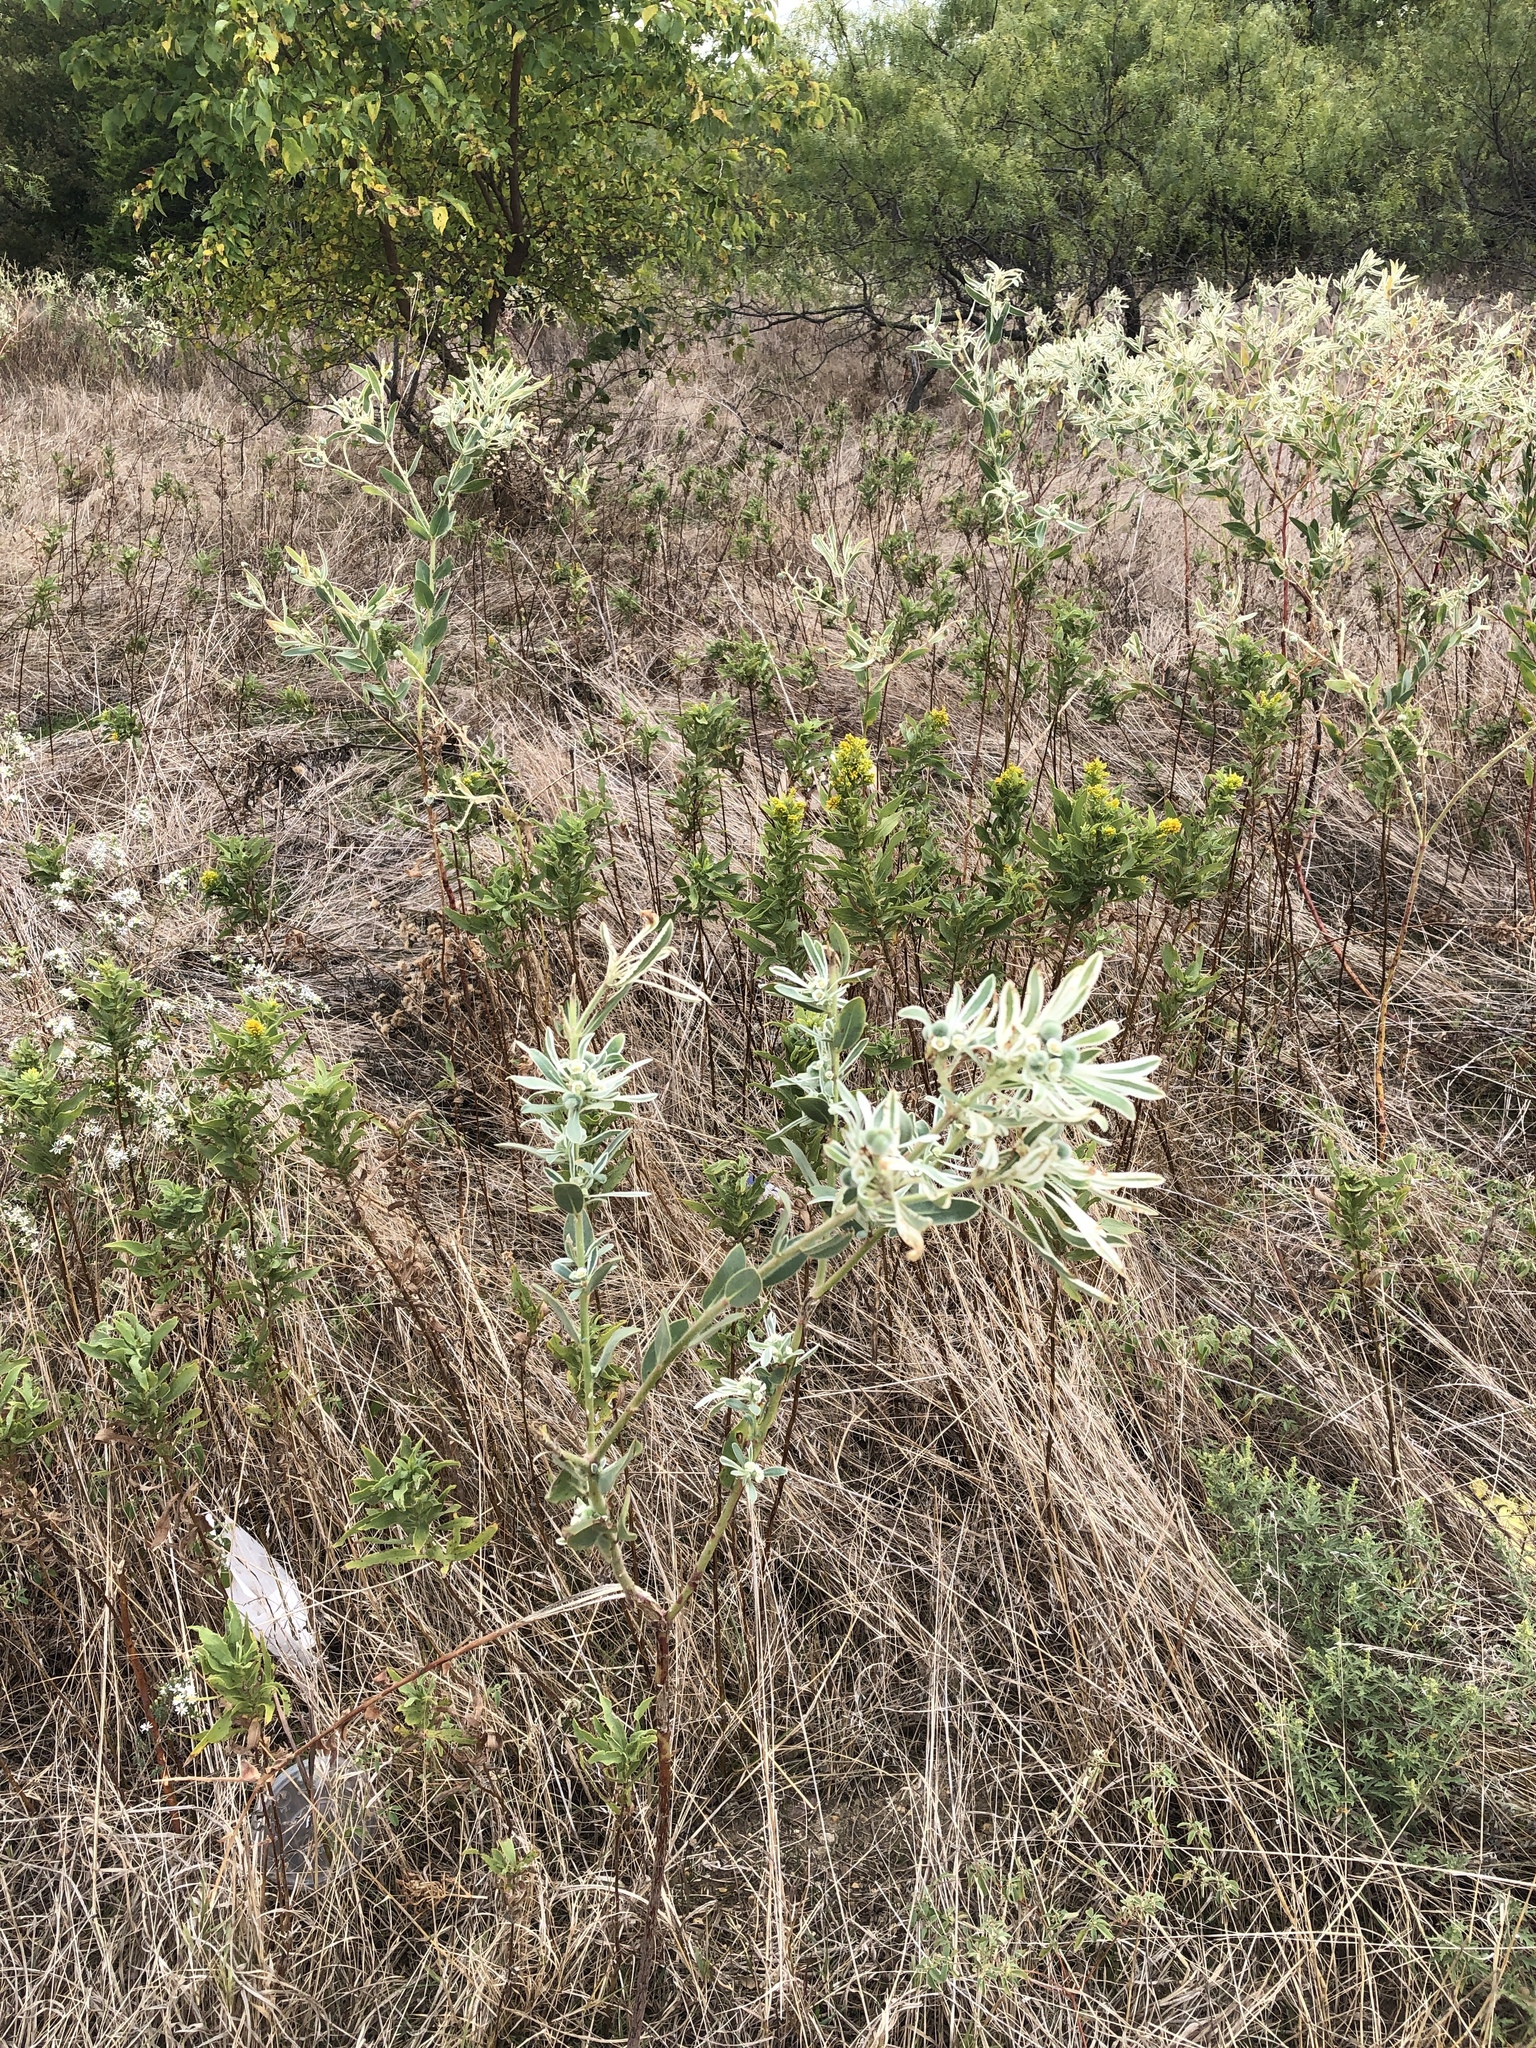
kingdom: Plantae
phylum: Tracheophyta
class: Magnoliopsida
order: Malpighiales
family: Euphorbiaceae
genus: Euphorbia
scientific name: Euphorbia bicolor
